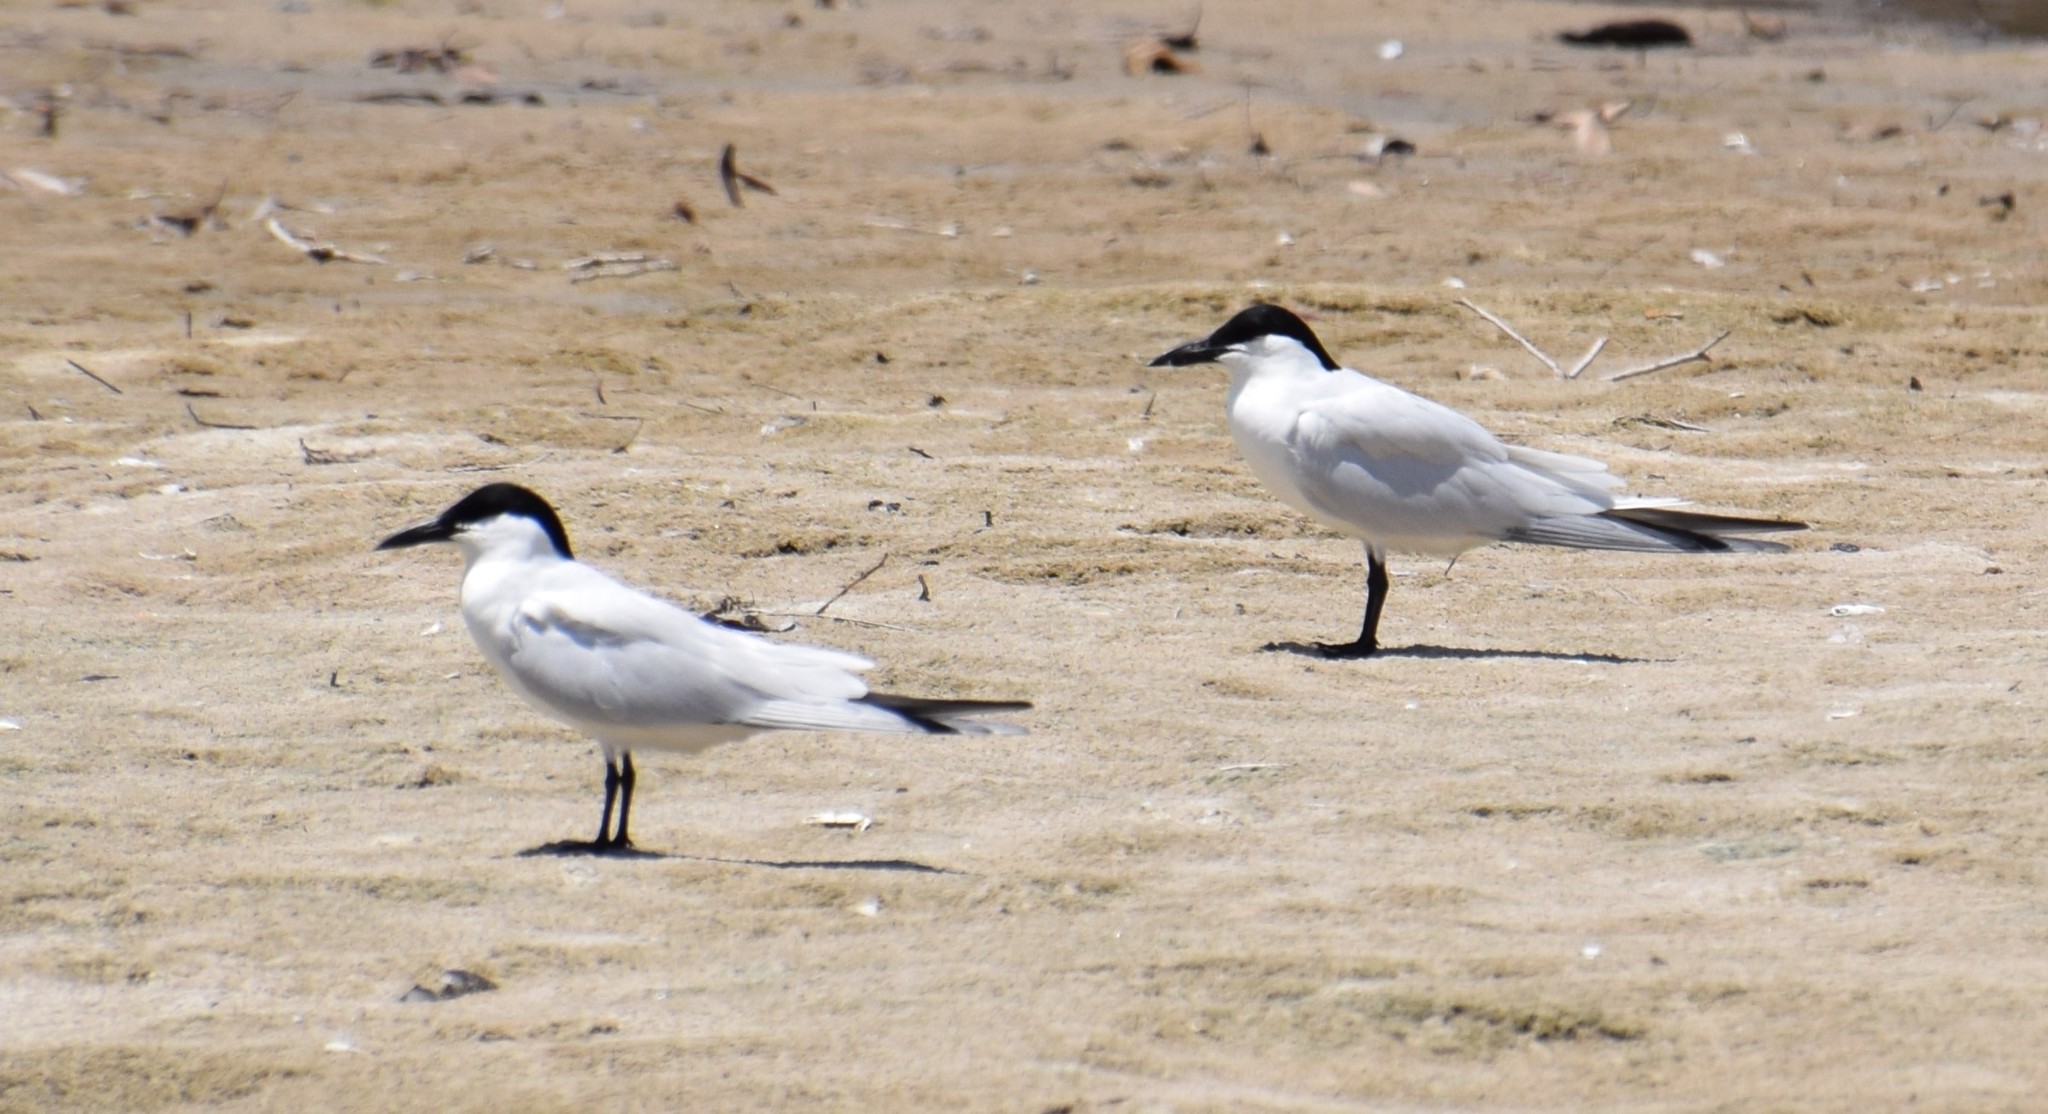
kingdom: Animalia
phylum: Chordata
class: Aves
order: Charadriiformes
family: Laridae
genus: Gelochelidon
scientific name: Gelochelidon macrotarsa
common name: Australian tern
